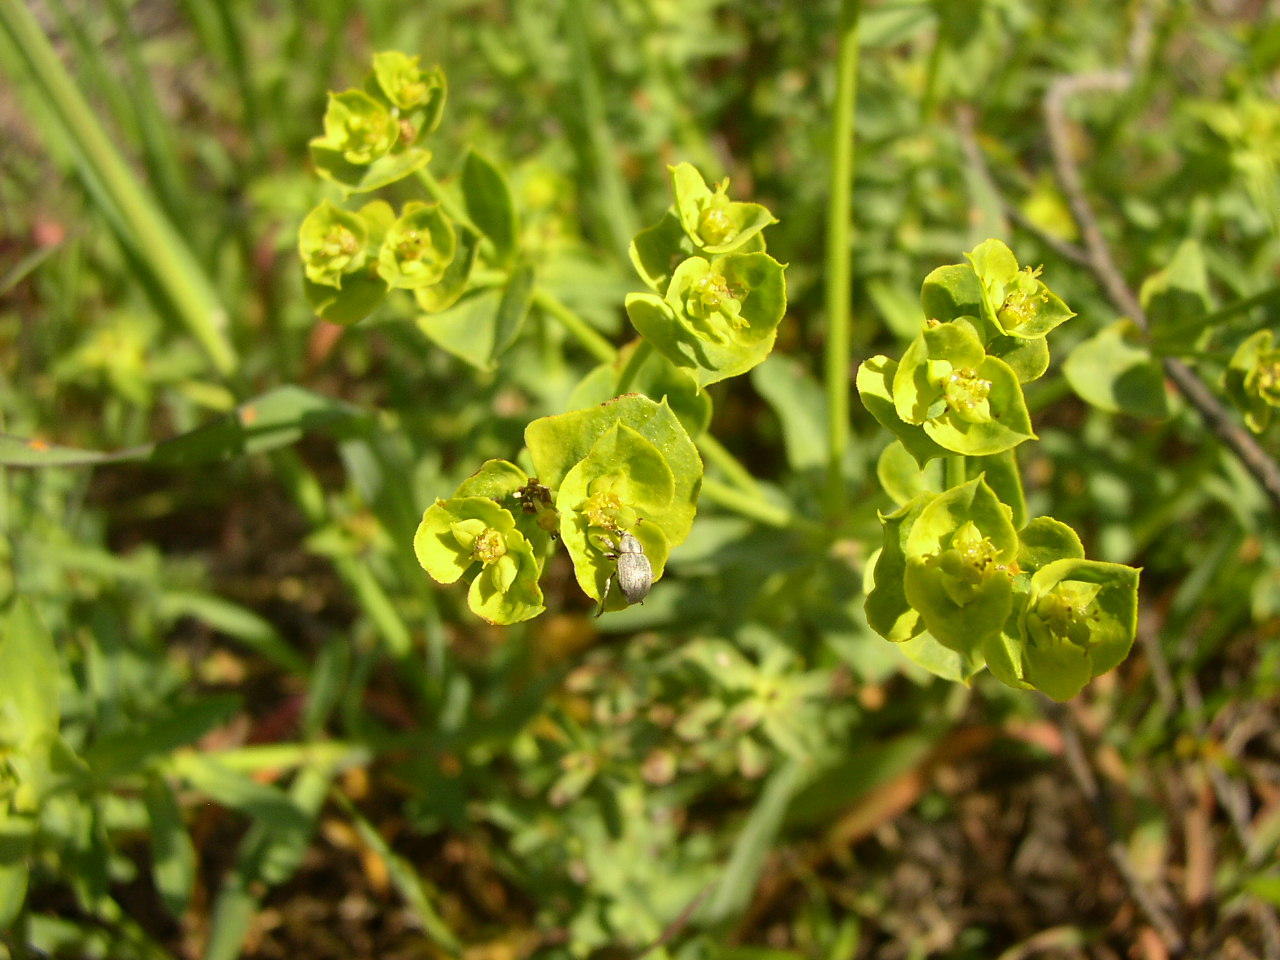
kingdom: Plantae
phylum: Tracheophyta
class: Magnoliopsida
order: Malpighiales
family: Euphorbiaceae
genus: Euphorbia
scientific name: Euphorbia terracina
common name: Geraldton carnation weed
